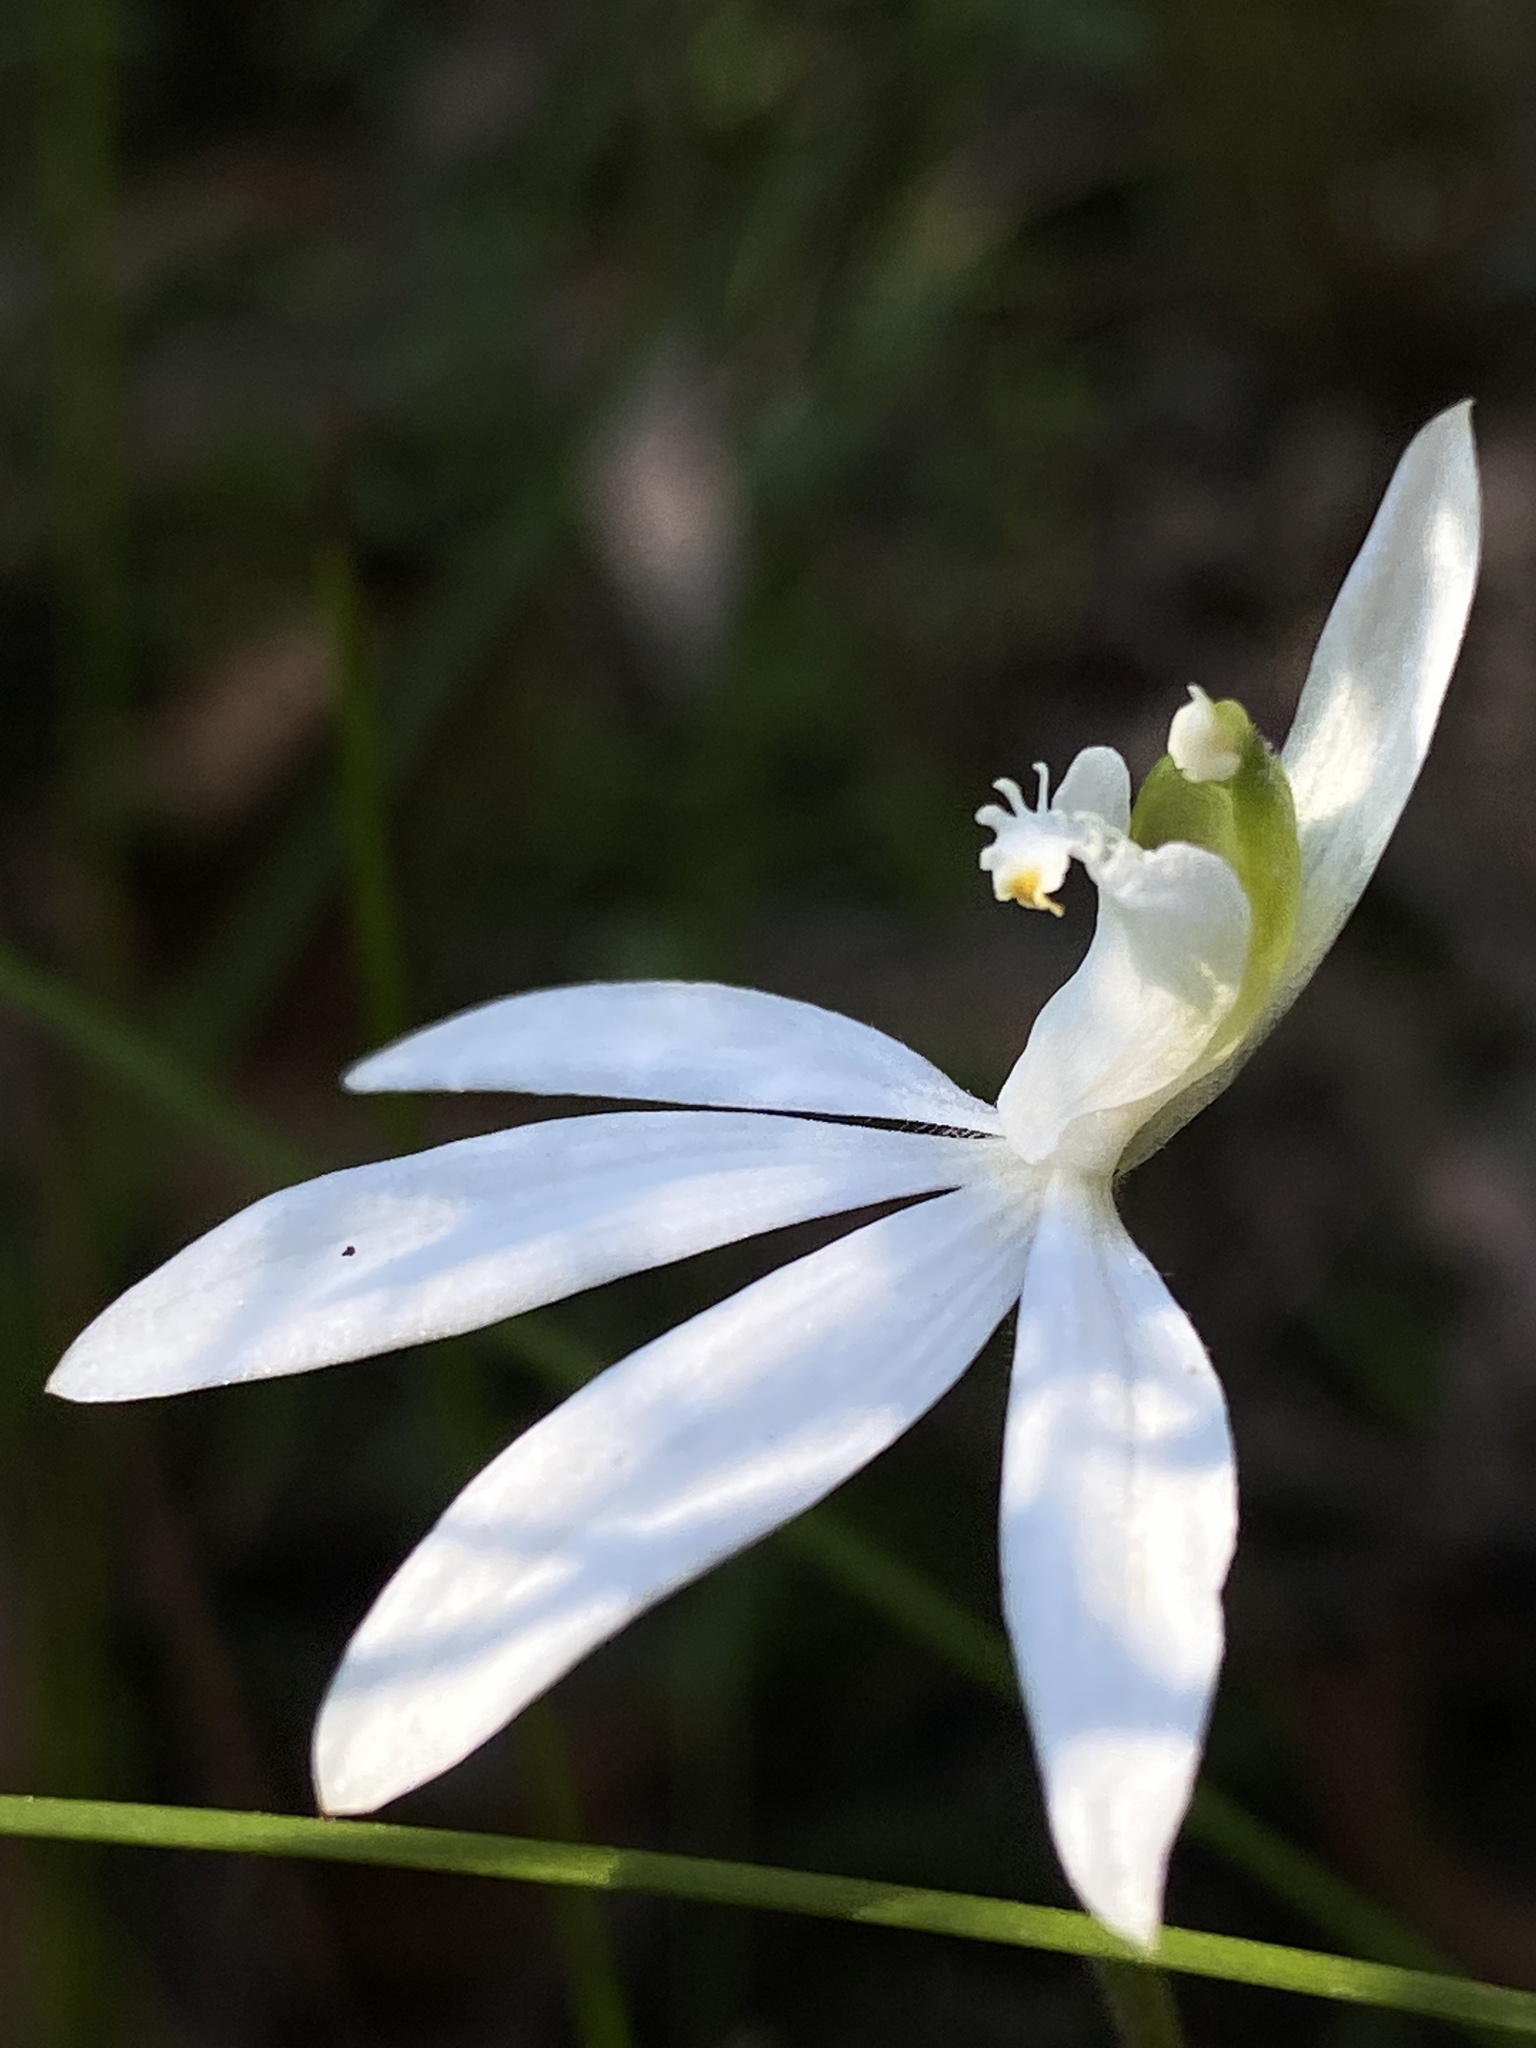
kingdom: Plantae
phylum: Tracheophyta
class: Liliopsida
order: Asparagales
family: Orchidaceae
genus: Caladenia
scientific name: Caladenia catenata
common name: White caladenia
